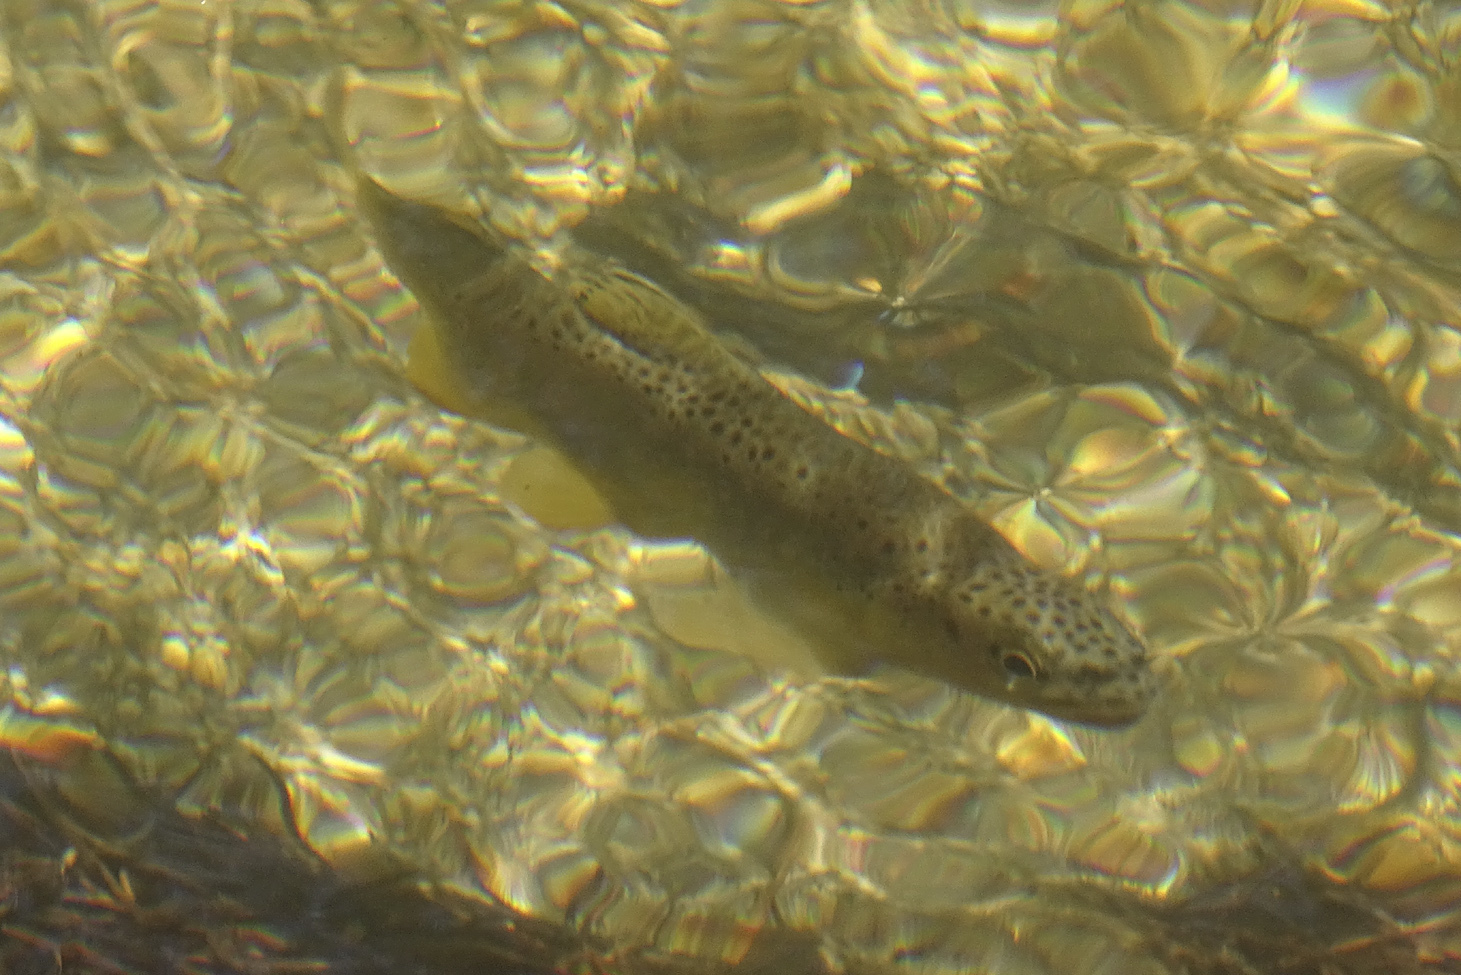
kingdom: Animalia
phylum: Chordata
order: Salmoniformes
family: Salmonidae
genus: Salmo
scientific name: Salmo trutta
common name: Brown trout
